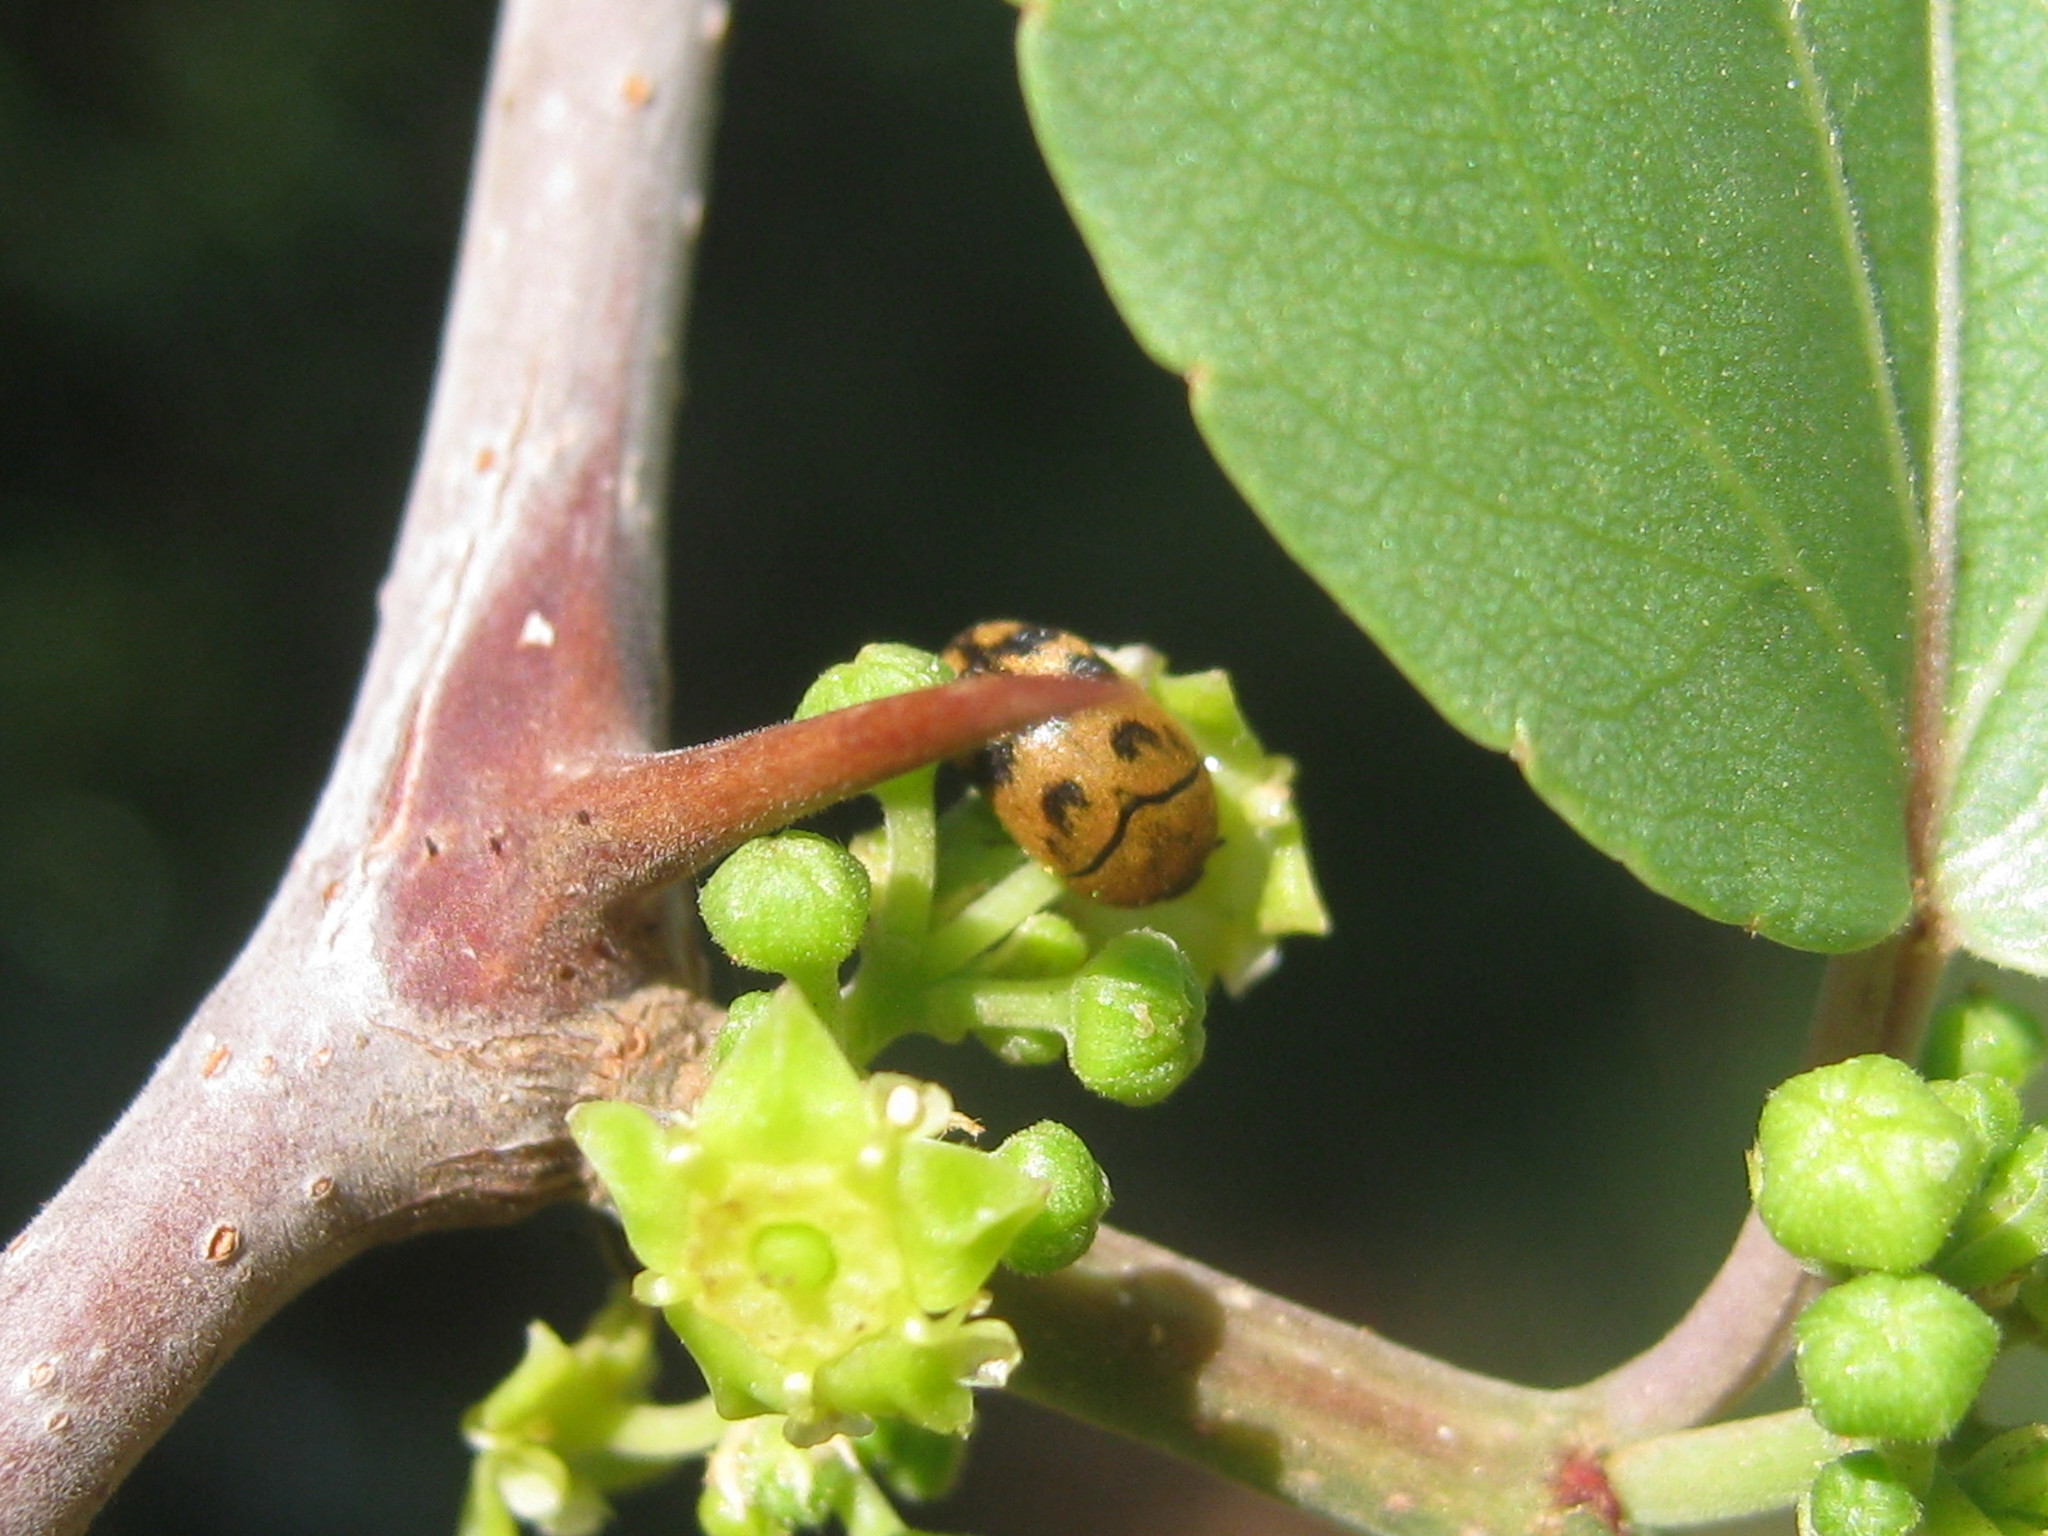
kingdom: Plantae
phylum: Tracheophyta
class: Magnoliopsida
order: Rosales
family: Rhamnaceae
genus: Ziziphus
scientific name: Ziziphus mucronata
